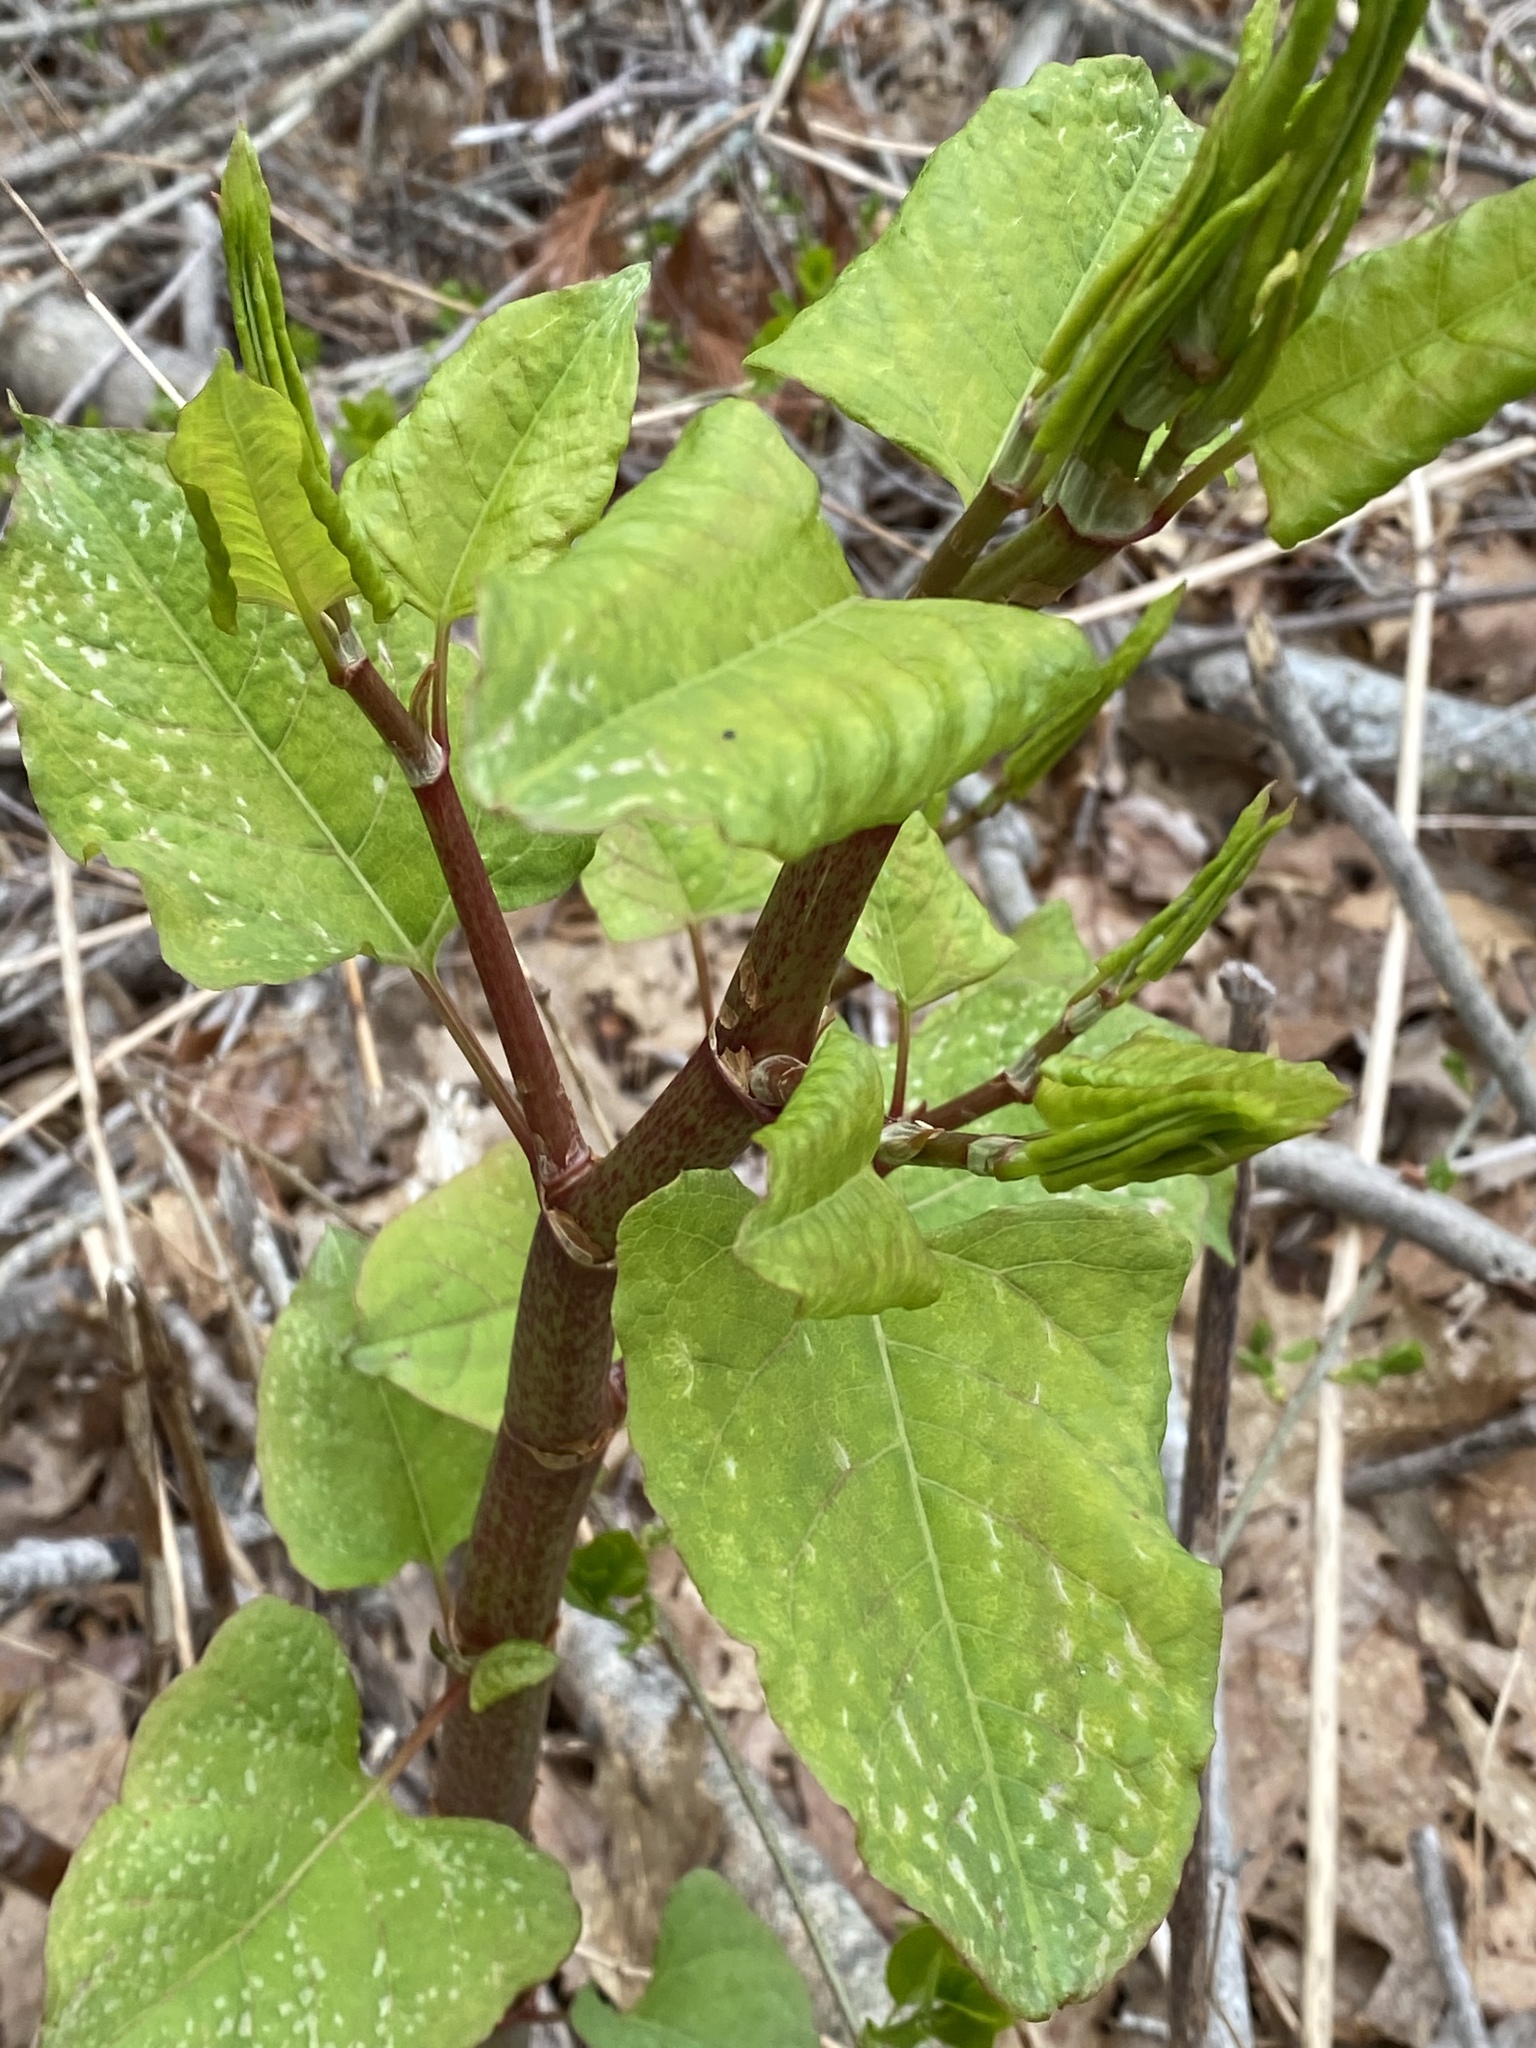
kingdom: Plantae
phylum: Tracheophyta
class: Magnoliopsida
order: Caryophyllales
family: Polygonaceae
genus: Reynoutria
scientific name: Reynoutria japonica
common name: Japanese knotweed
